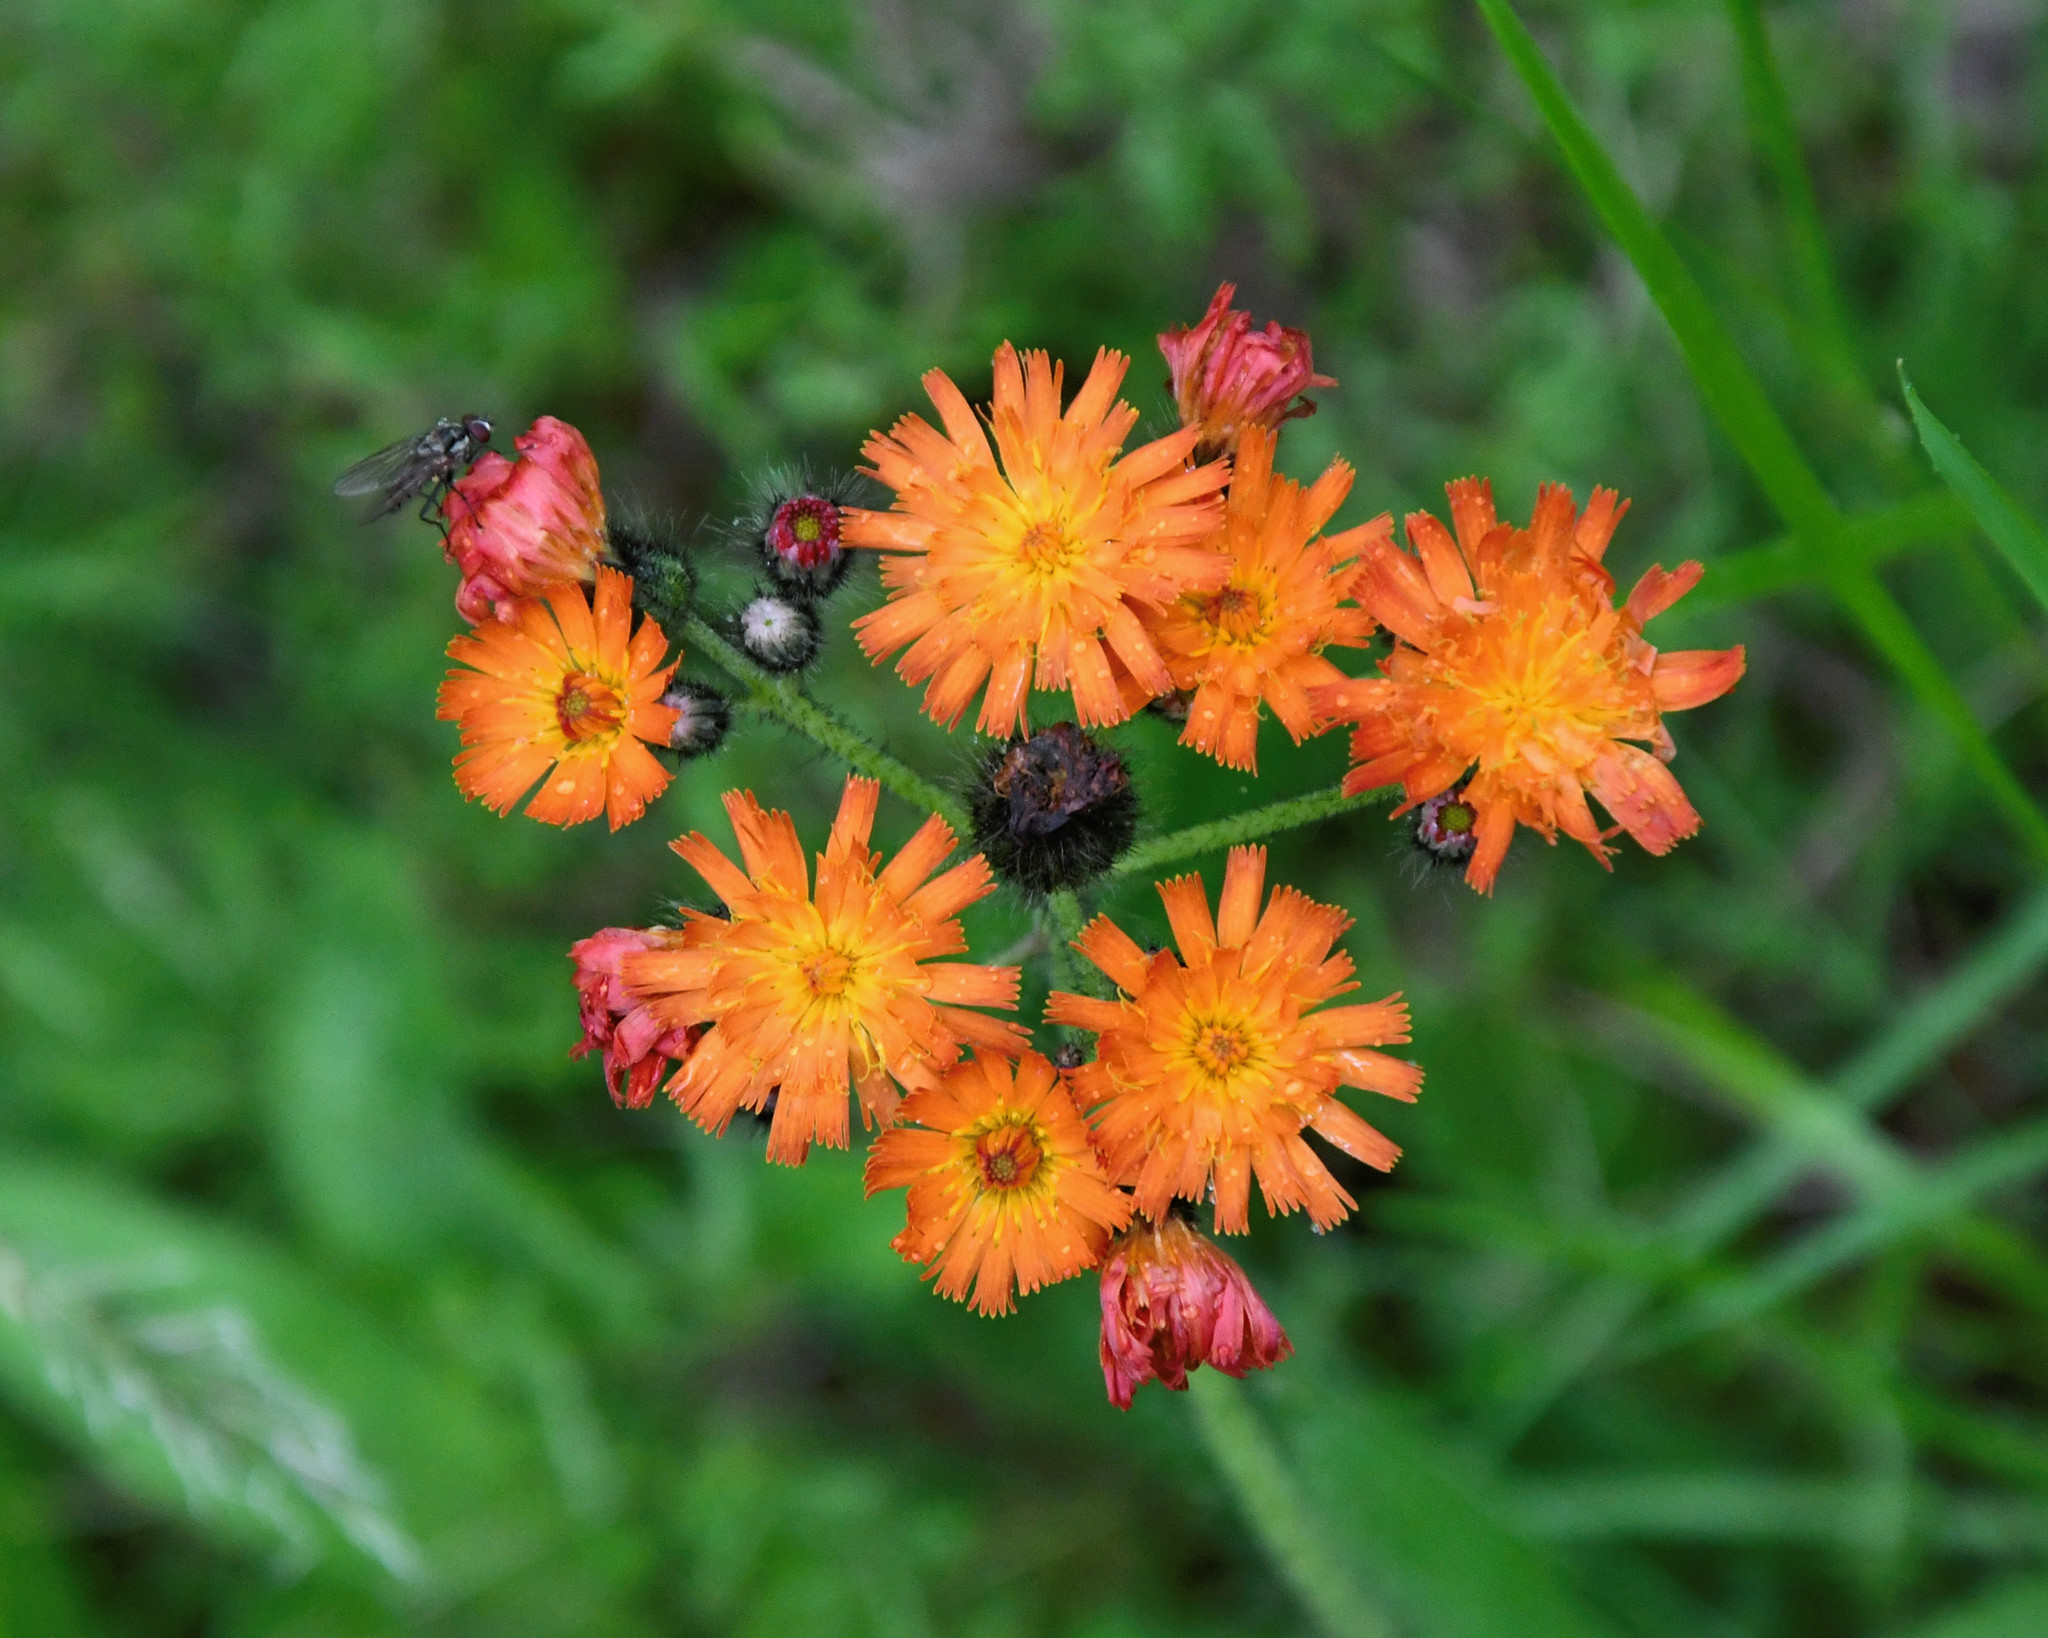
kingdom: Plantae
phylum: Tracheophyta
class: Magnoliopsida
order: Asterales
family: Asteraceae
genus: Pilosella
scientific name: Pilosella aurantiaca
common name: Fox-and-cubs
